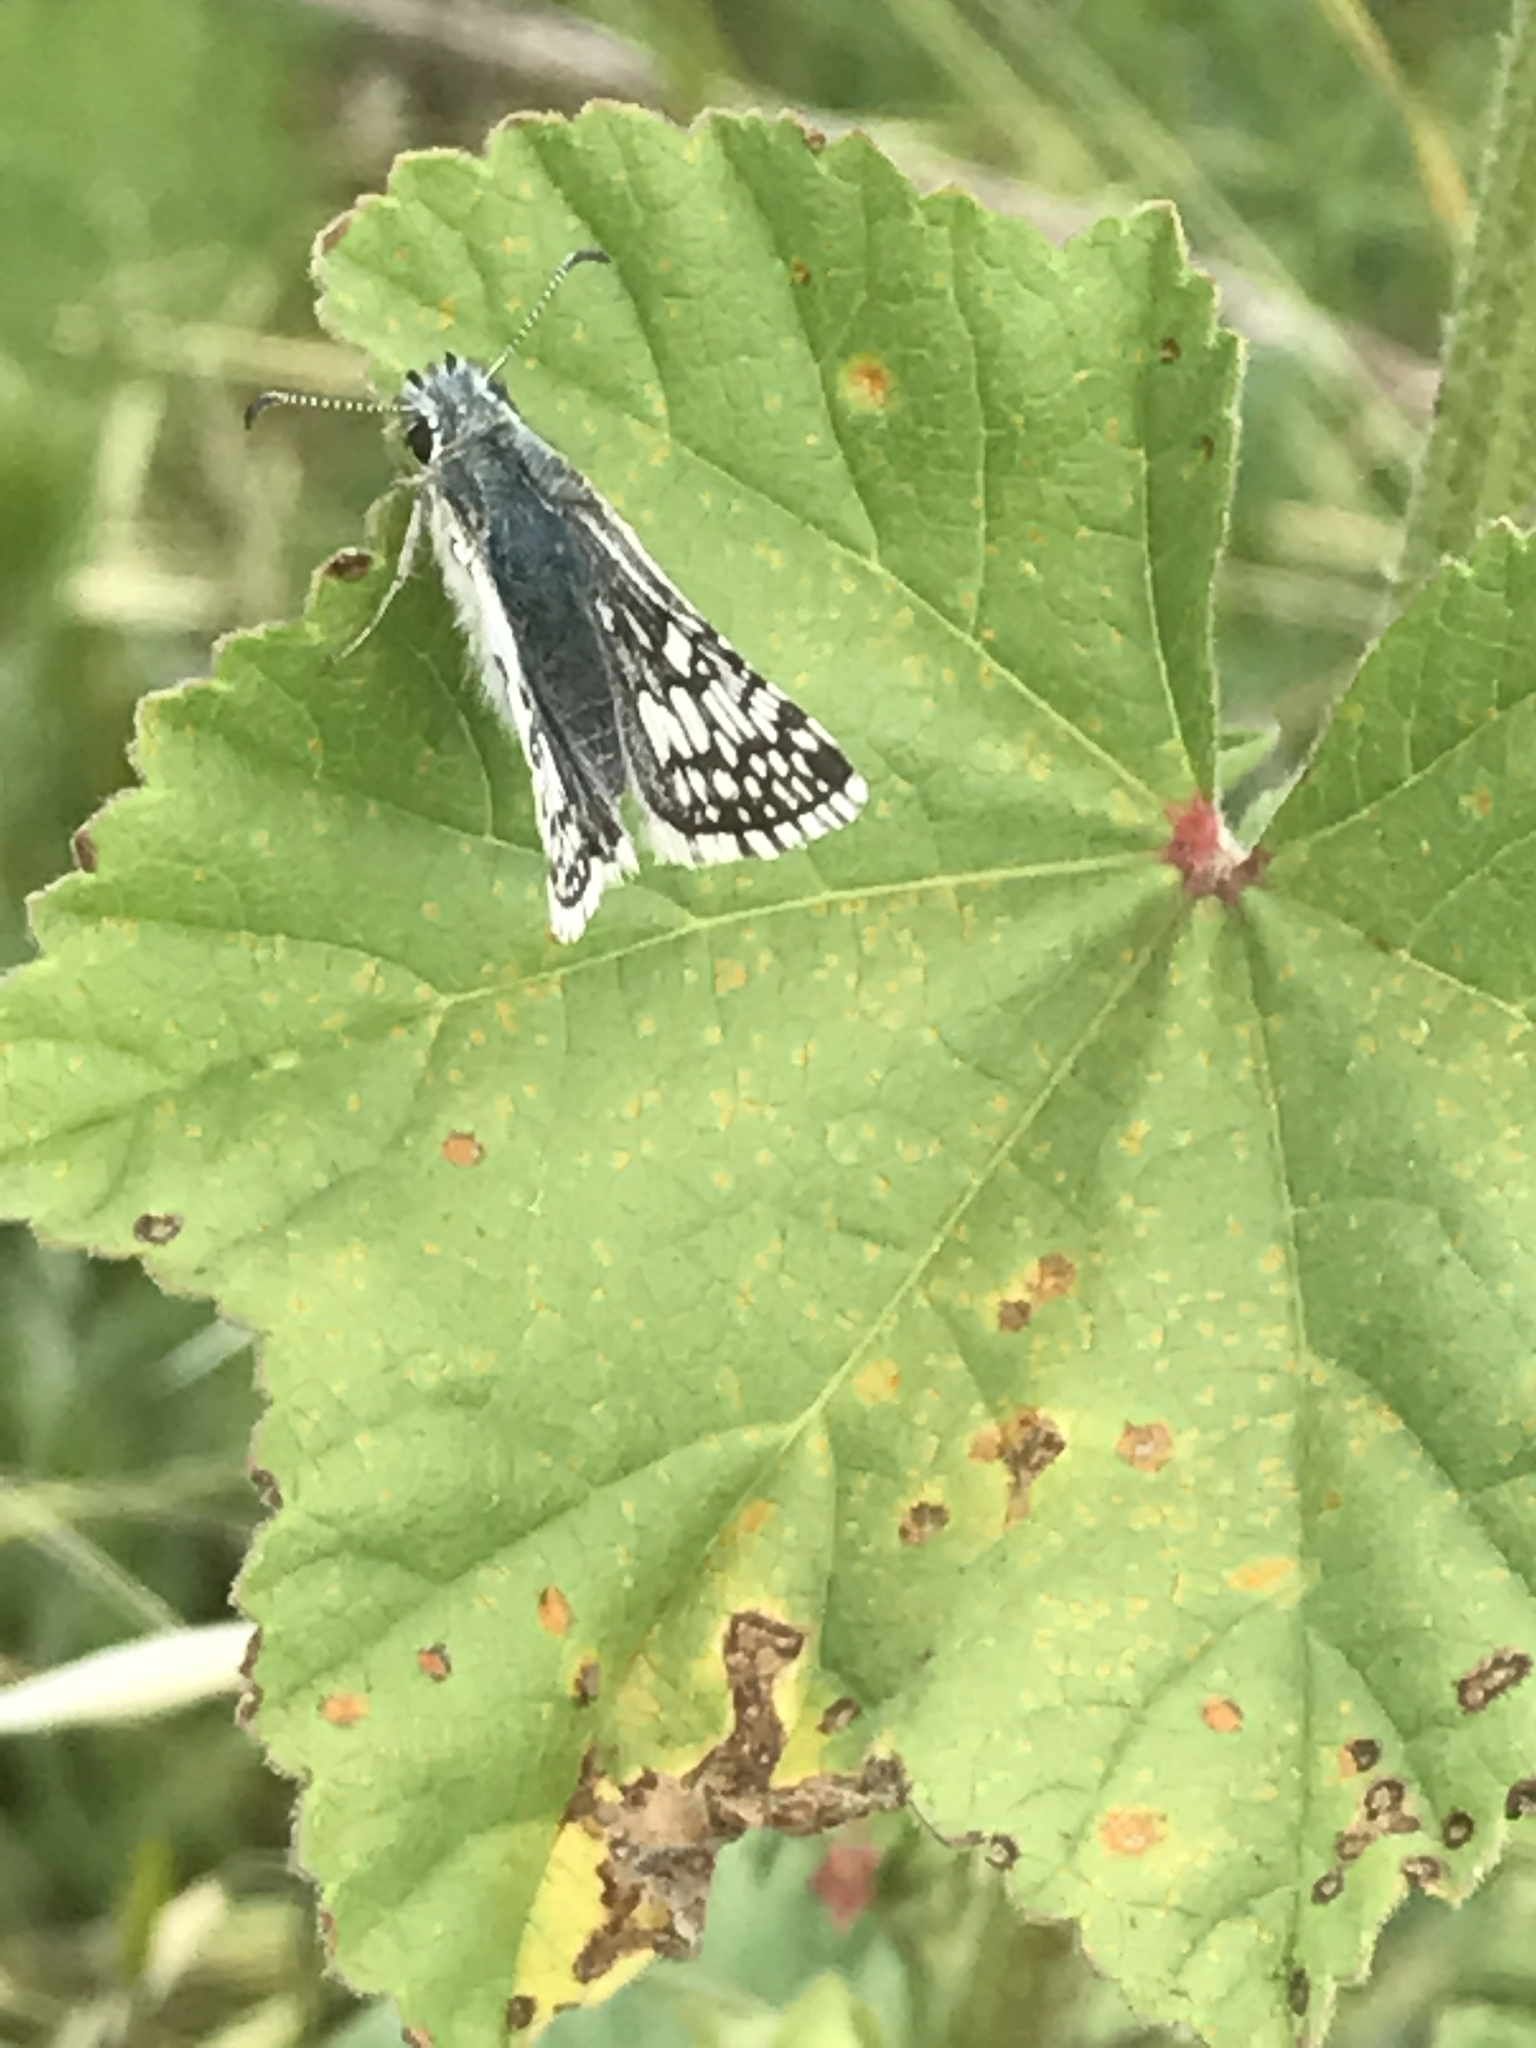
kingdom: Animalia
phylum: Arthropoda
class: Insecta
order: Lepidoptera
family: Hesperiidae
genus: Burnsius
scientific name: Burnsius communis
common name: Common checkered-skipper
